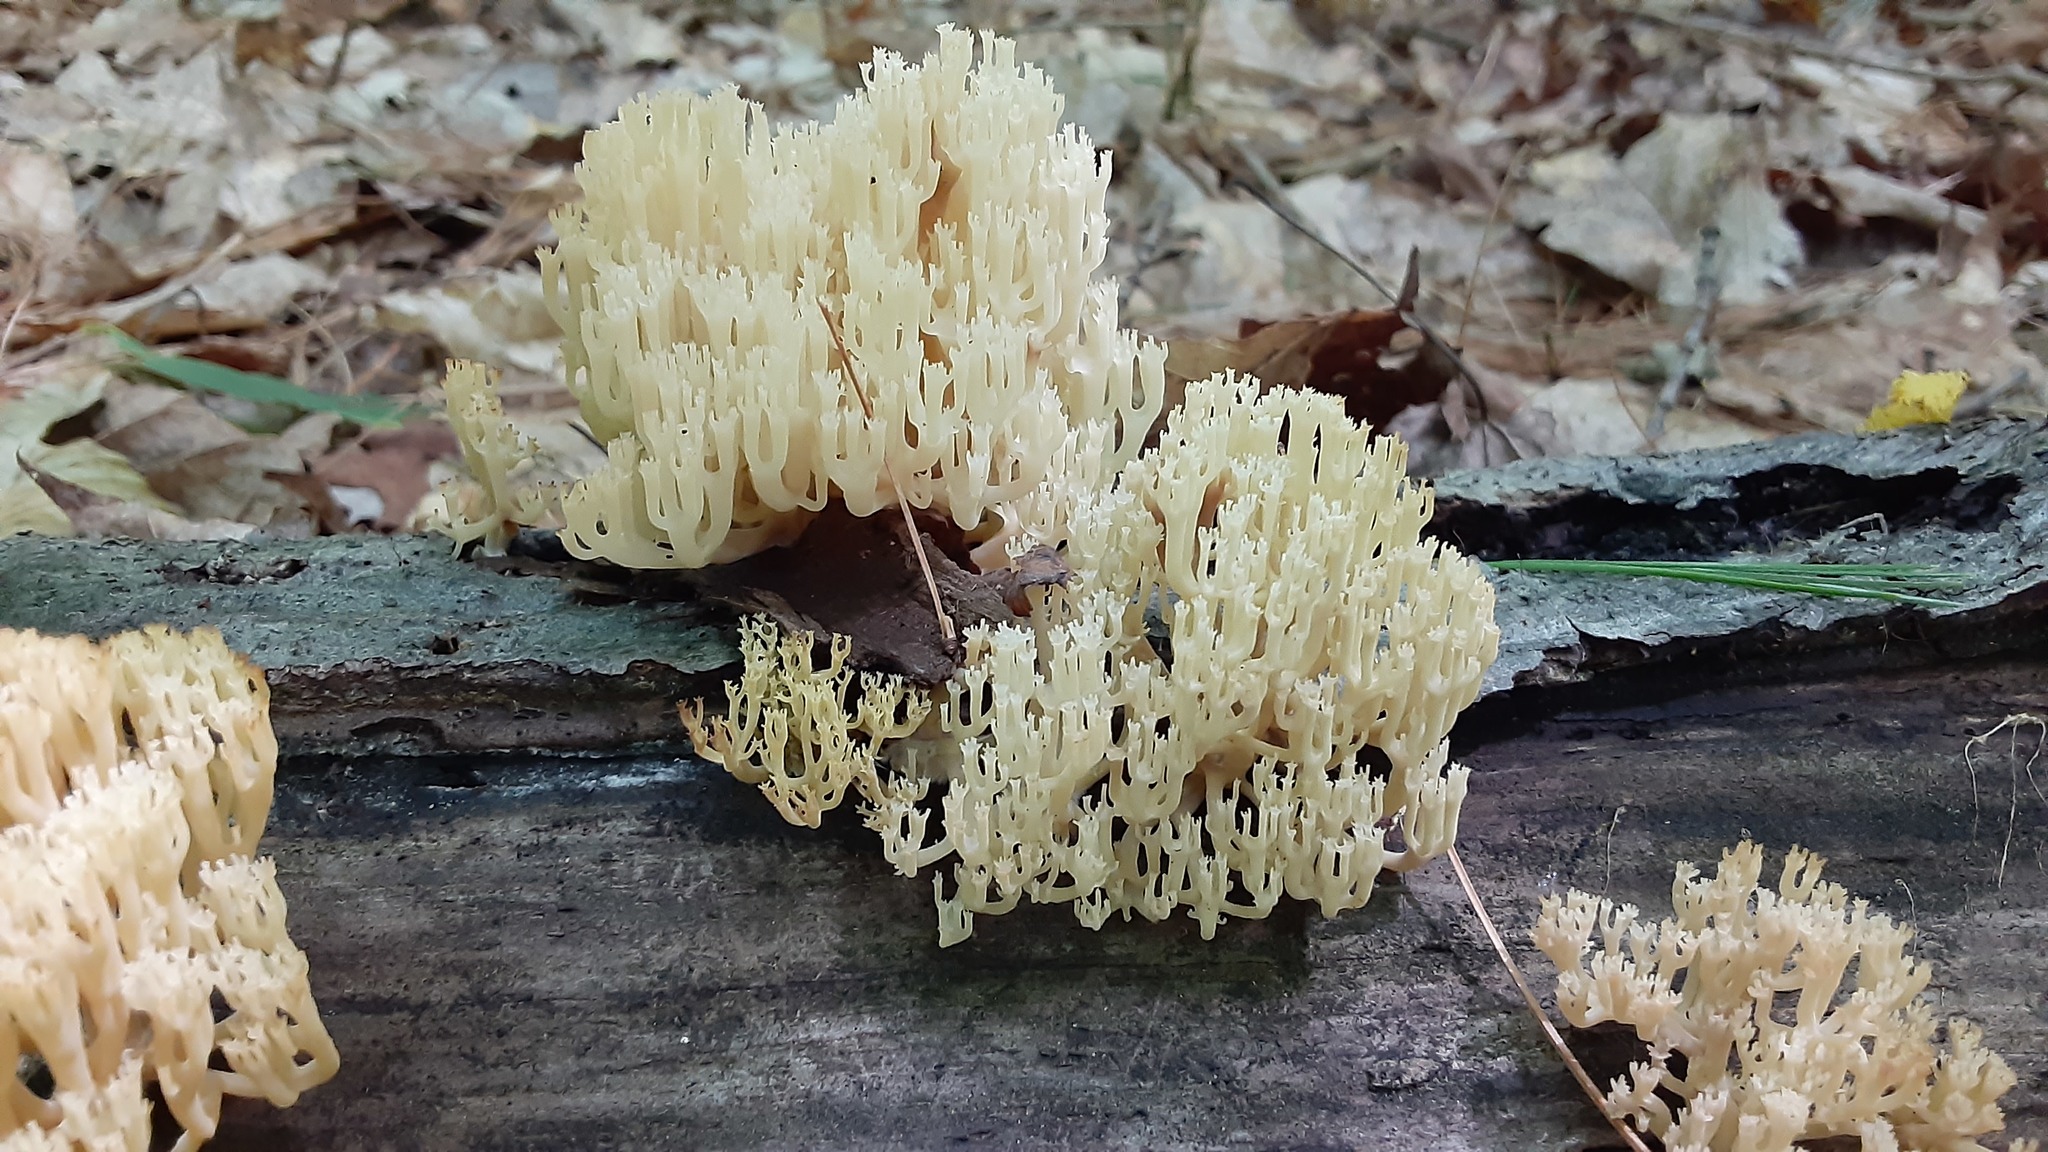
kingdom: Fungi
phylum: Basidiomycota
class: Agaricomycetes
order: Russulales
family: Auriscalpiaceae
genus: Artomyces
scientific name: Artomyces pyxidatus
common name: Crown-tipped coral fungus
